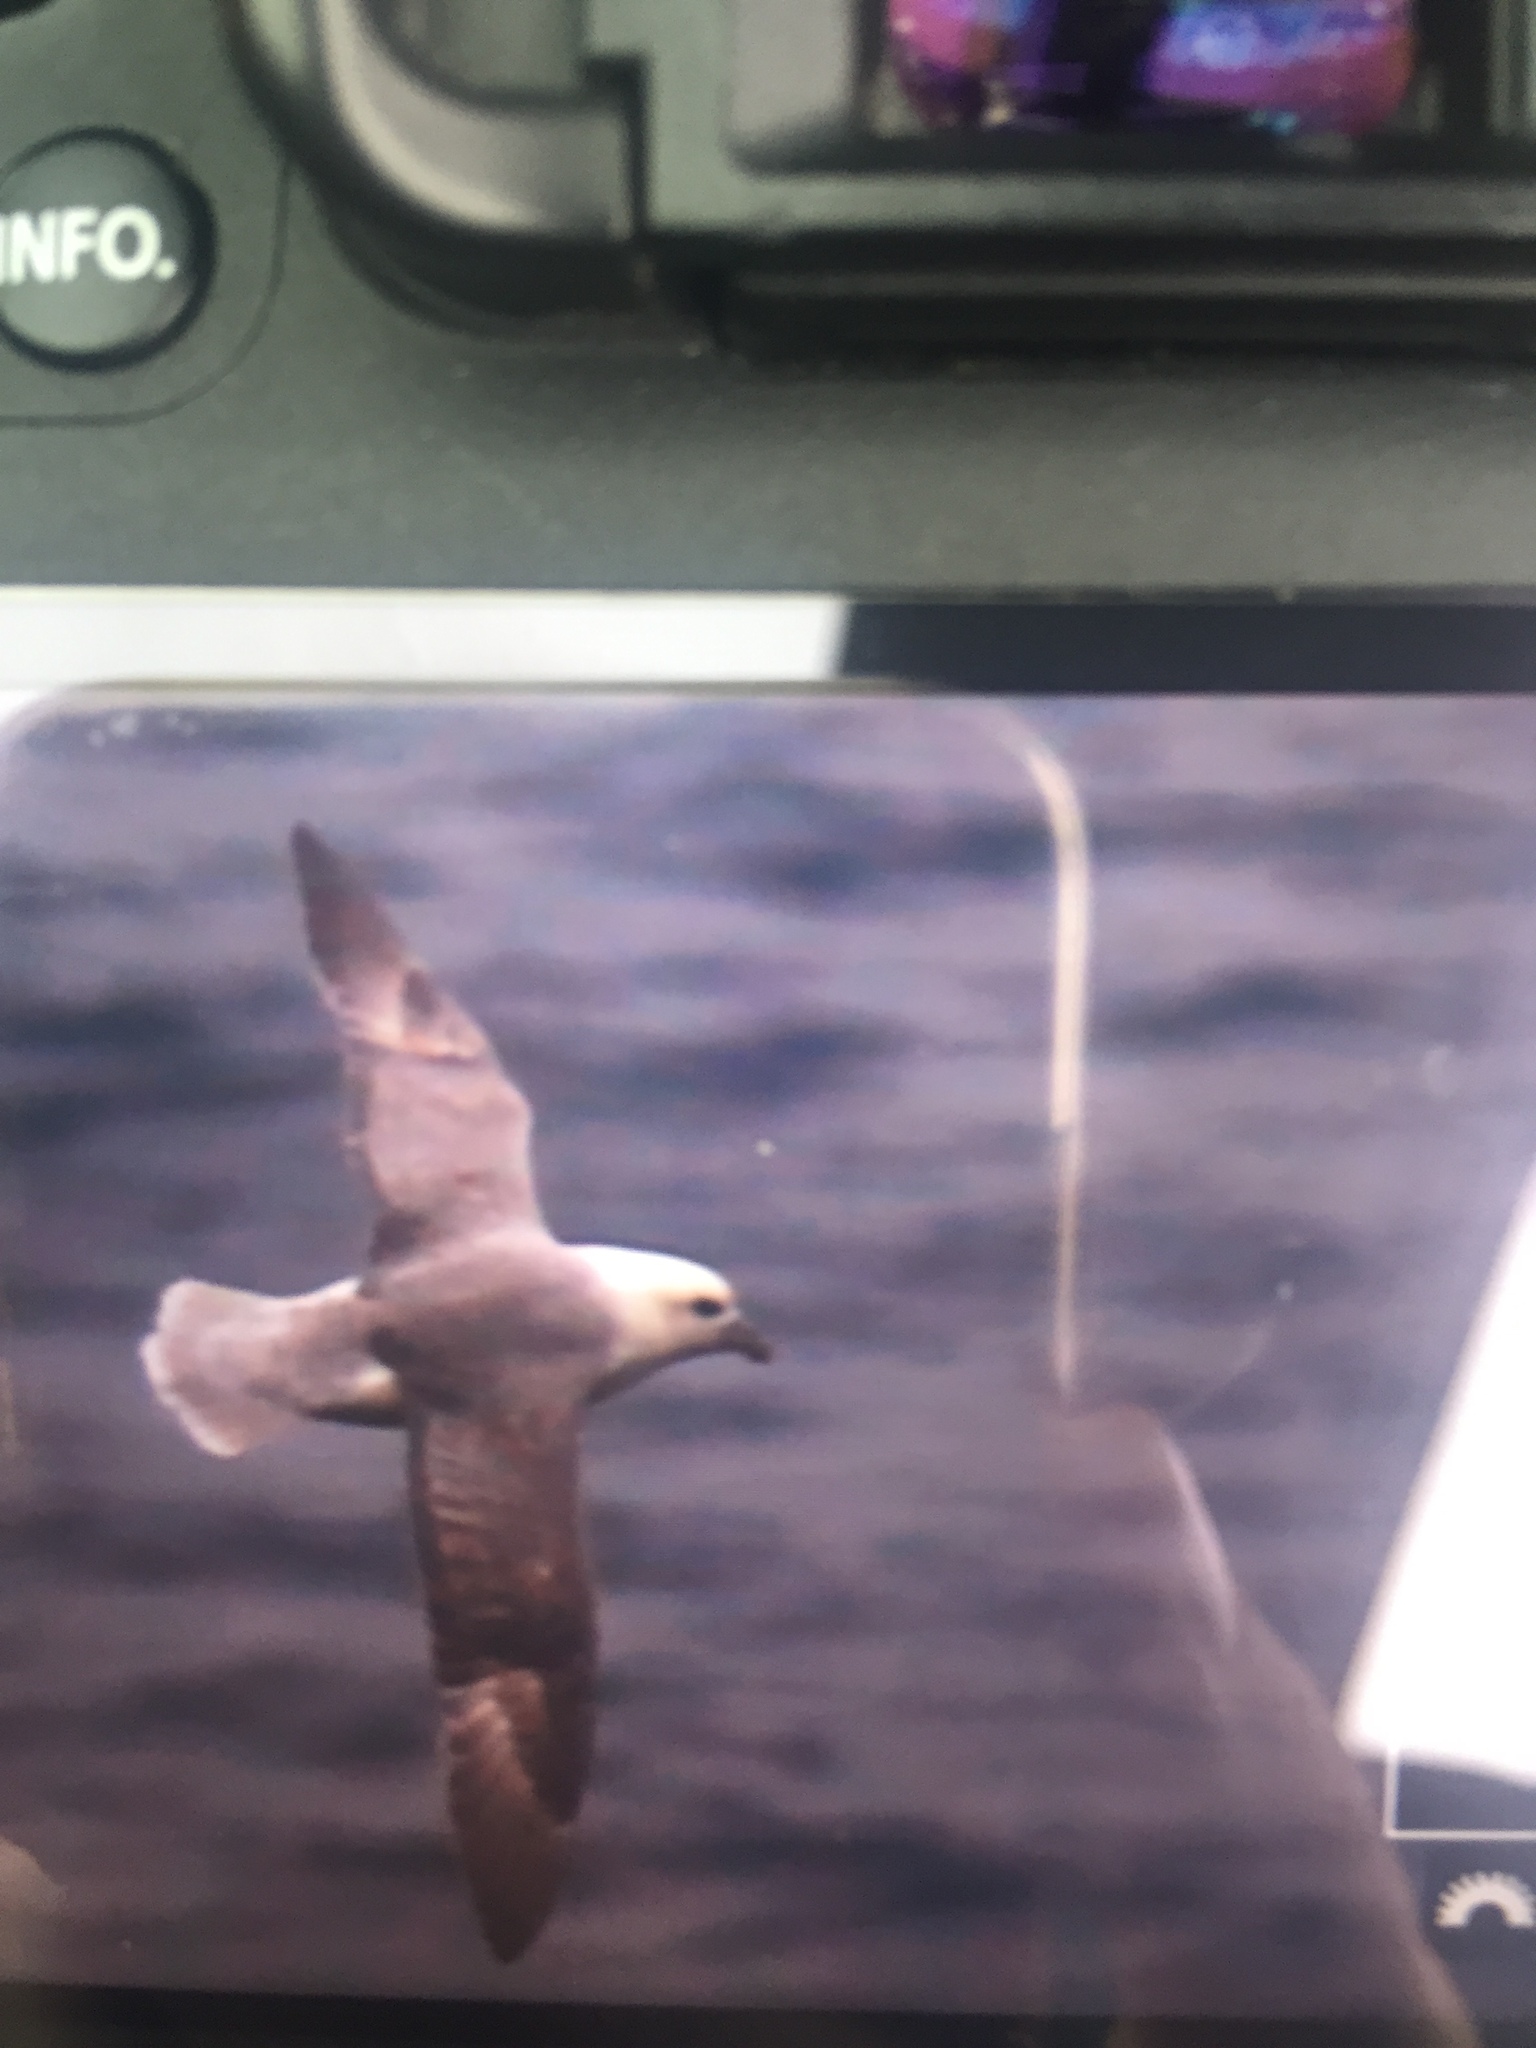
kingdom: Animalia
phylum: Chordata
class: Aves
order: Procellariiformes
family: Procellariidae
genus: Fulmarus
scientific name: Fulmarus glacialis
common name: Northern fulmar
